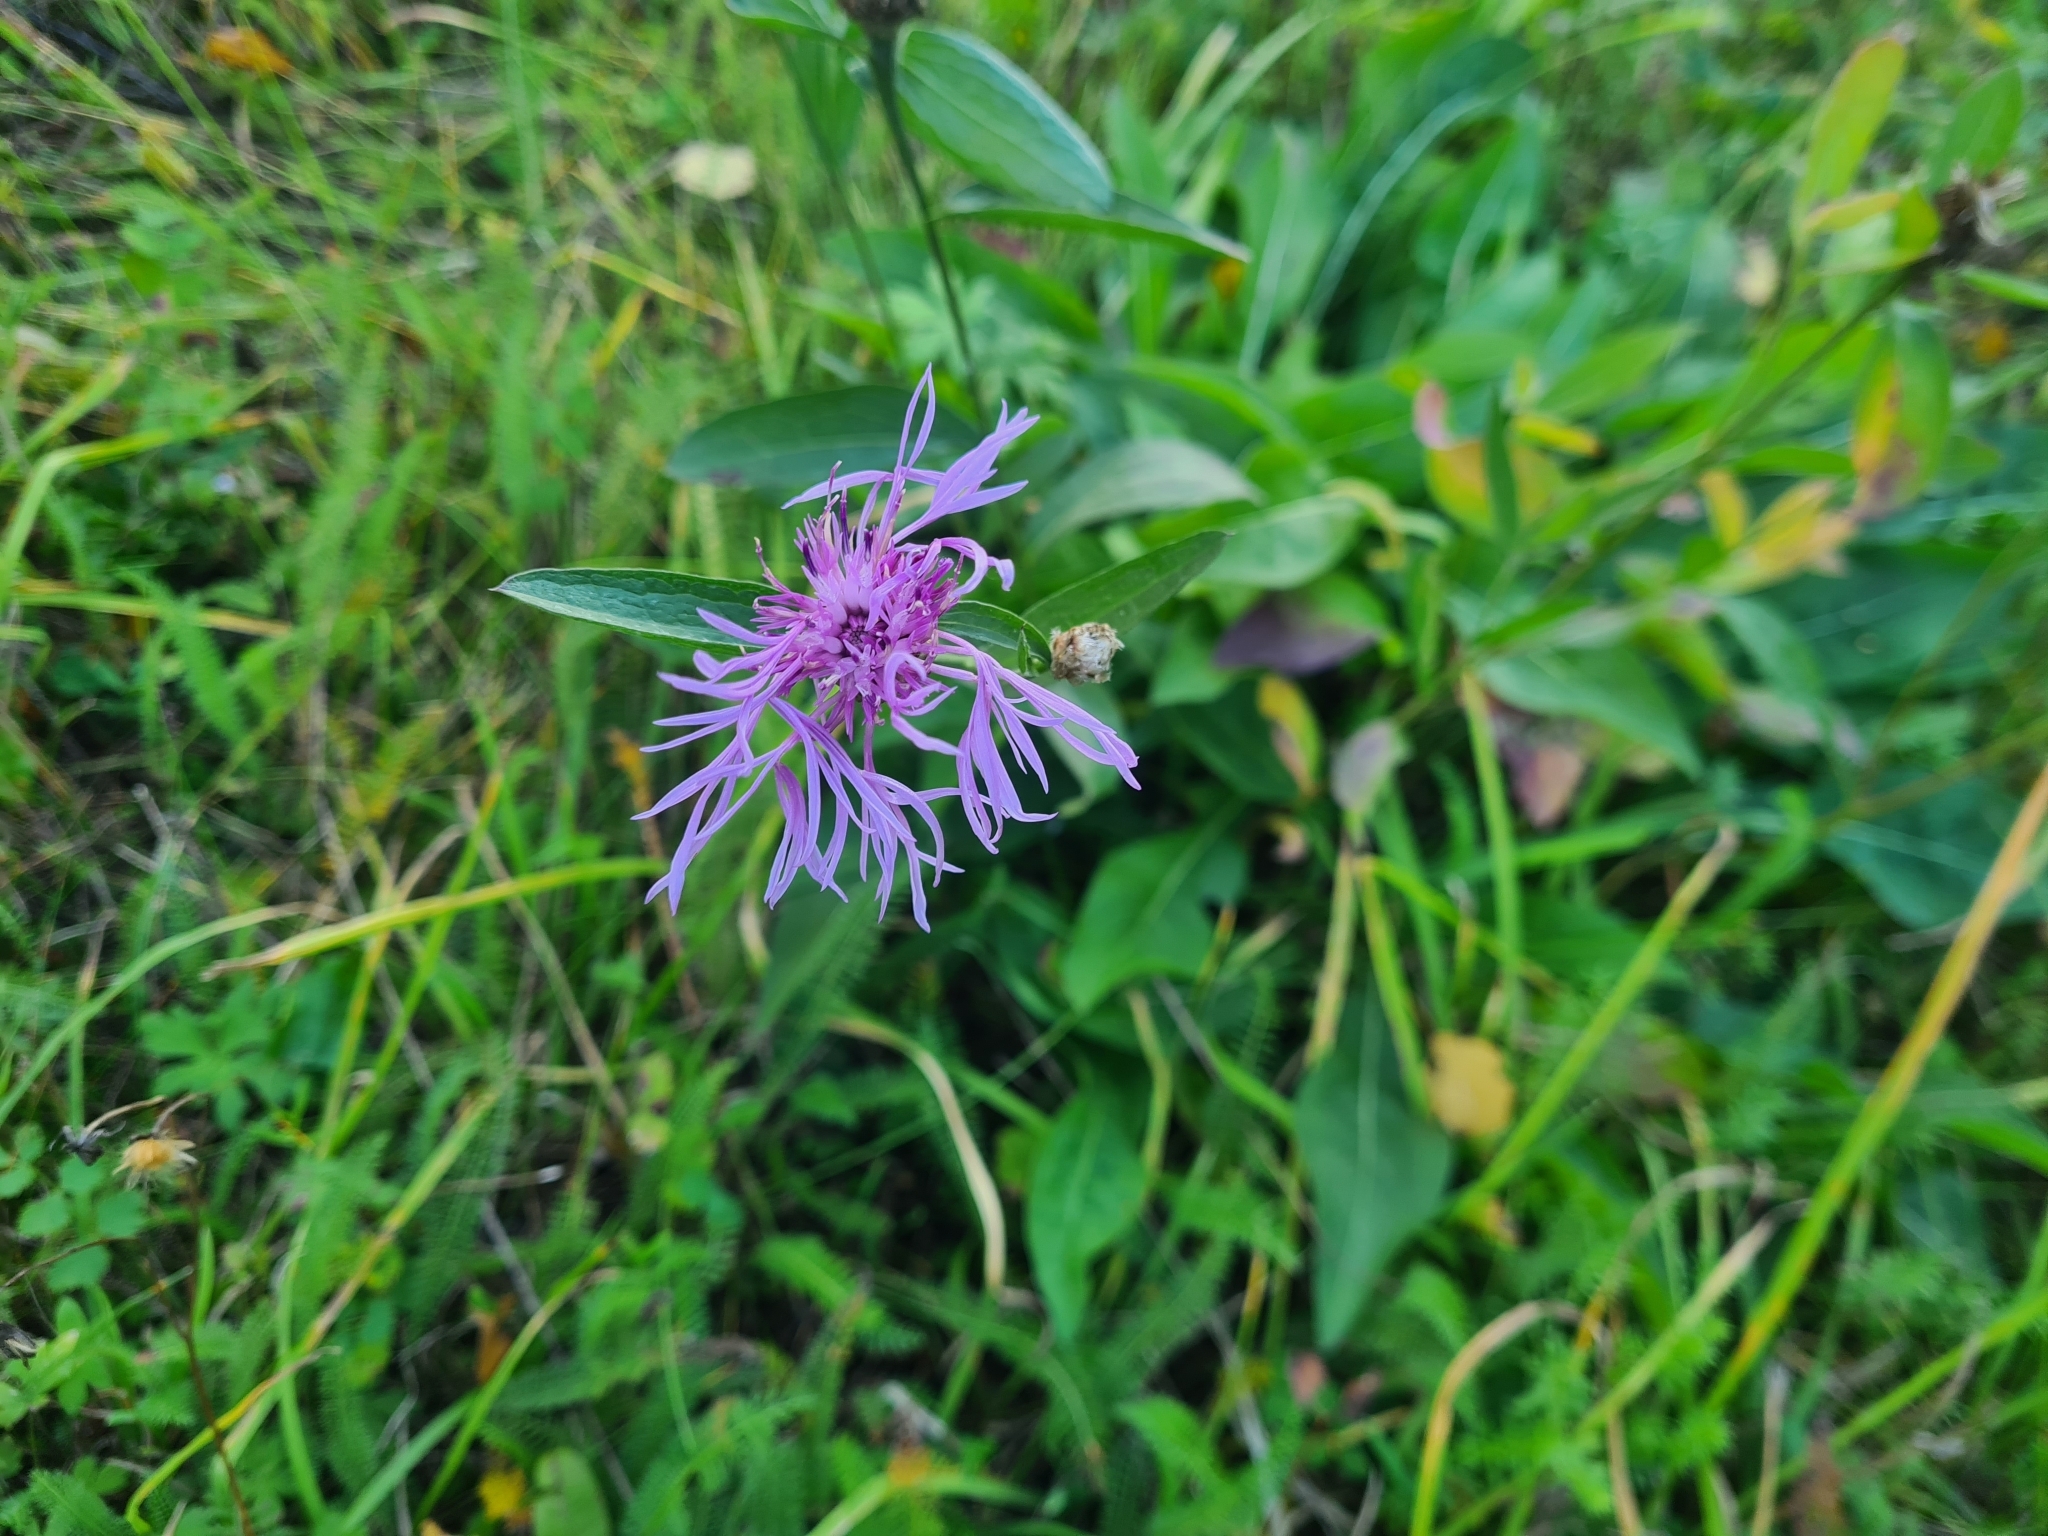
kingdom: Plantae
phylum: Tracheophyta
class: Magnoliopsida
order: Asterales
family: Asteraceae
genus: Centaurea
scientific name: Centaurea jacea
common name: Brown knapweed
